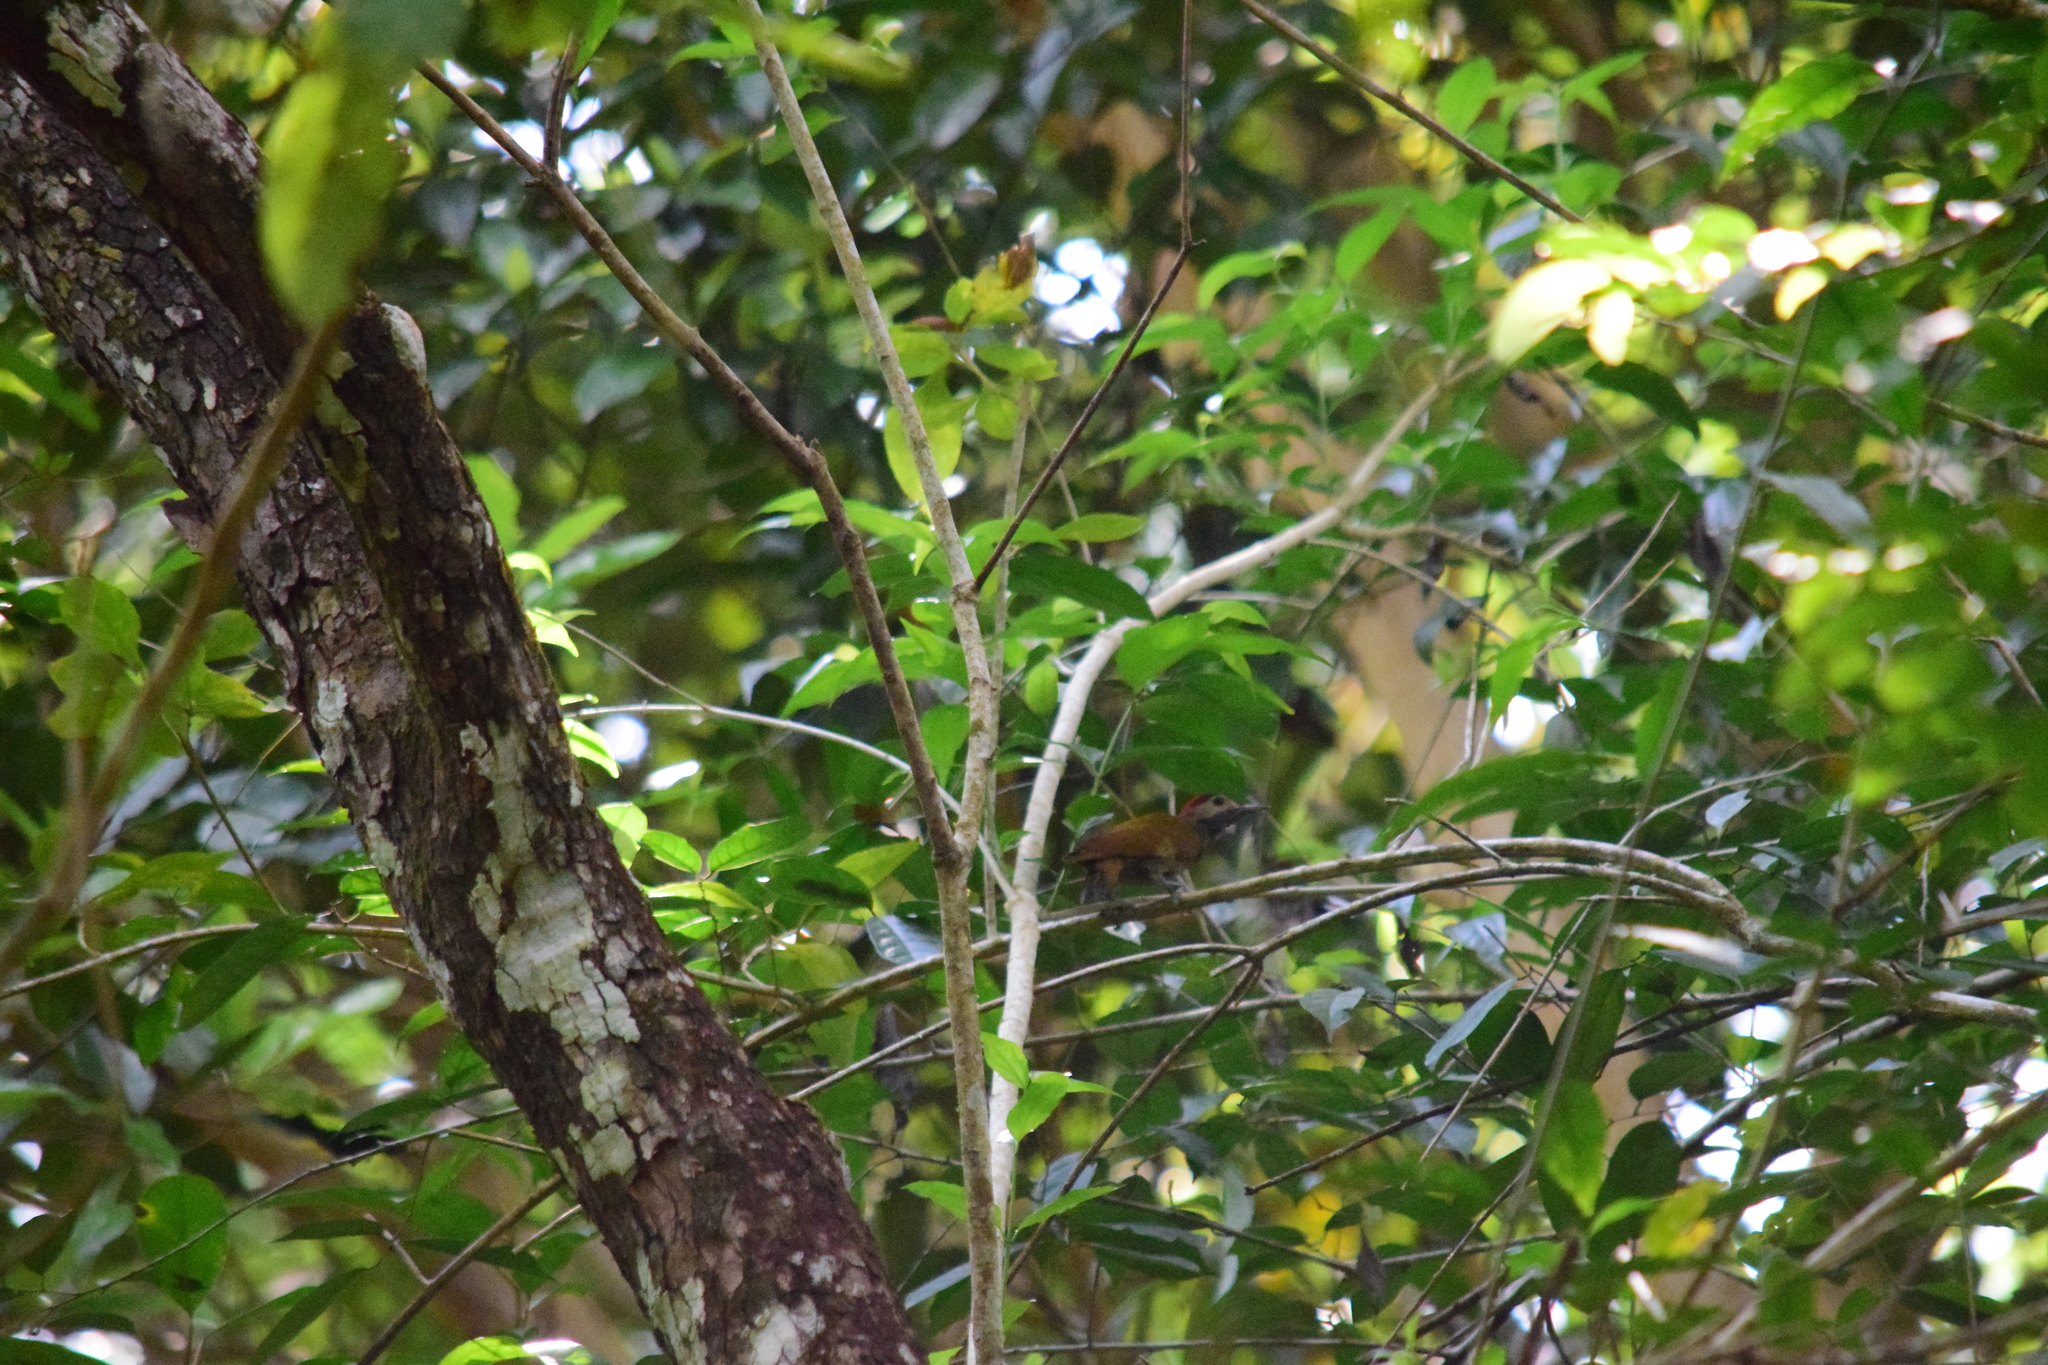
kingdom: Animalia
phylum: Chordata
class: Aves
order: Piciformes
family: Picidae
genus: Colaptes
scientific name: Colaptes rubiginosus
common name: Golden-olive woodpecker
